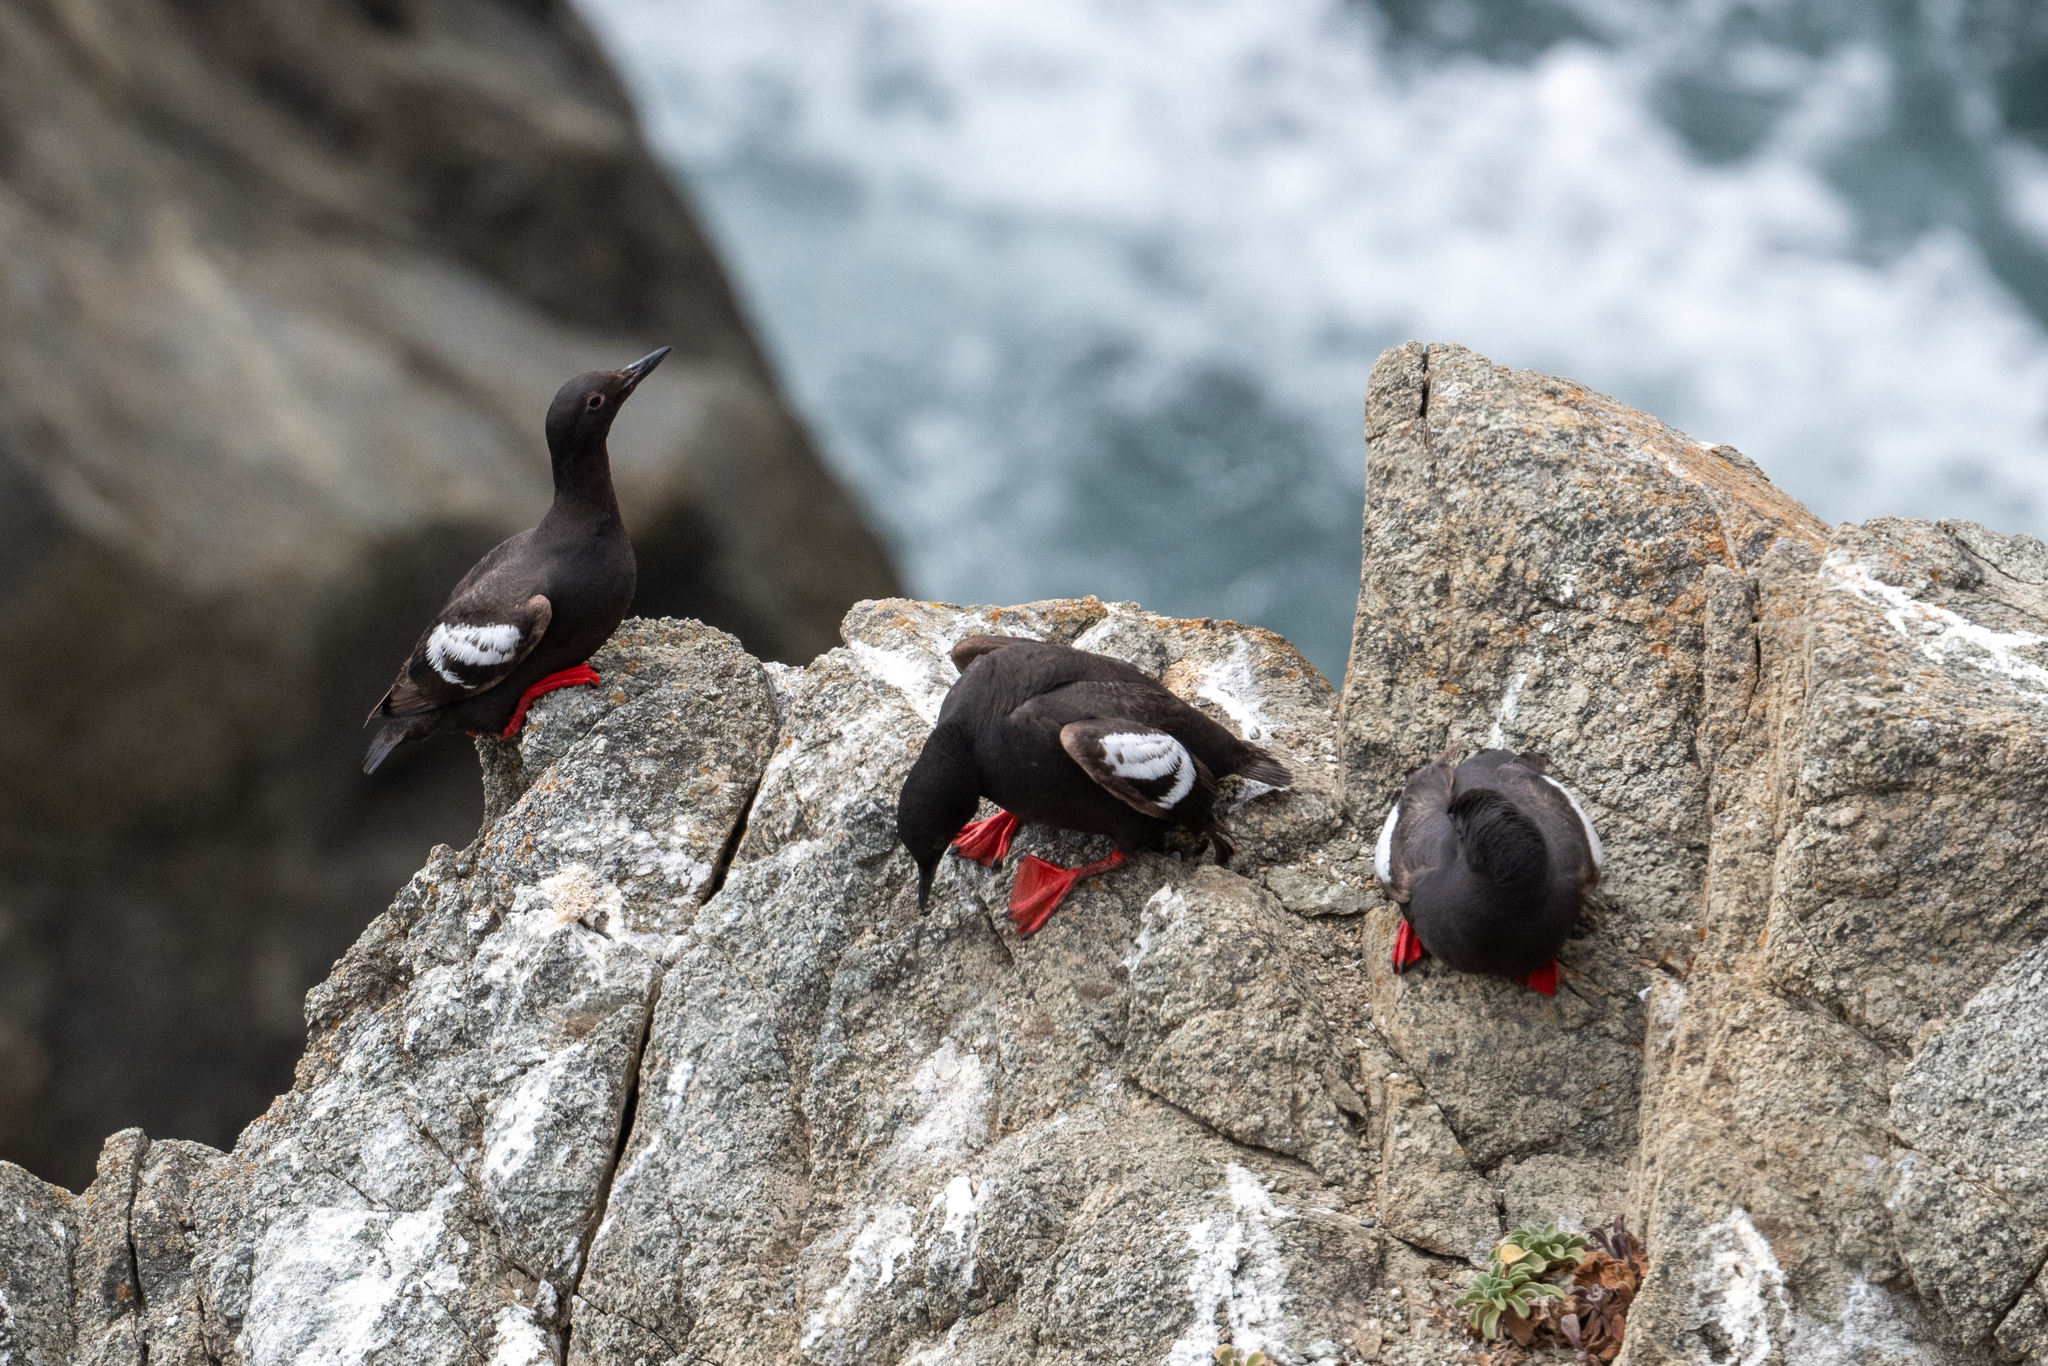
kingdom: Animalia
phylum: Chordata
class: Aves
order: Charadriiformes
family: Alcidae
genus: Cepphus
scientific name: Cepphus columba
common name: Pigeon guillemot
